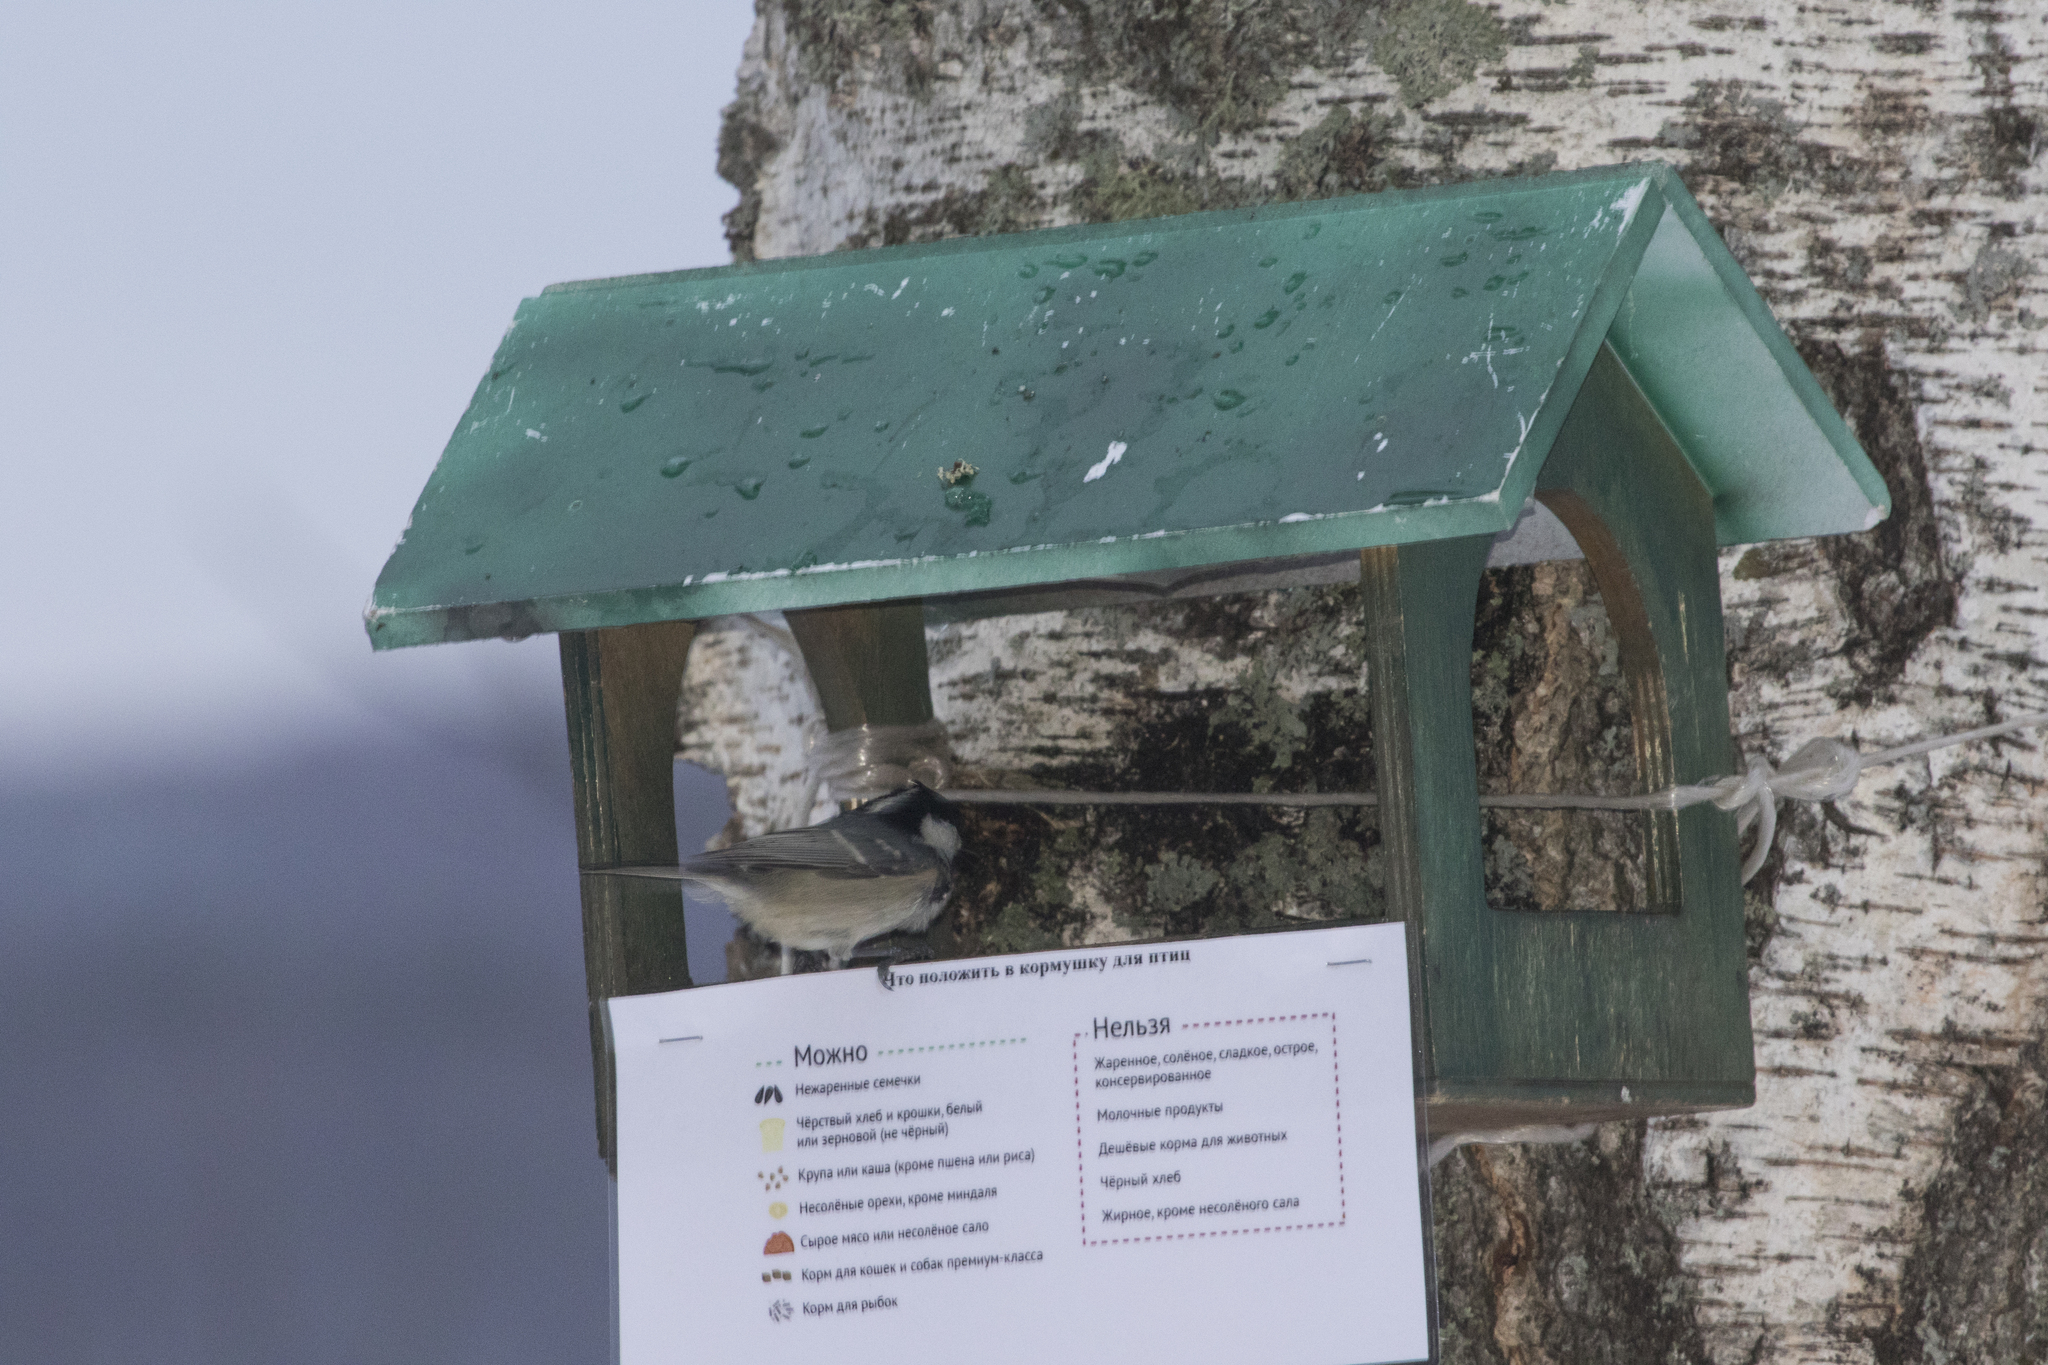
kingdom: Animalia
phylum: Chordata
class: Aves
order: Passeriformes
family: Paridae
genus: Periparus
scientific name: Periparus ater
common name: Coal tit
